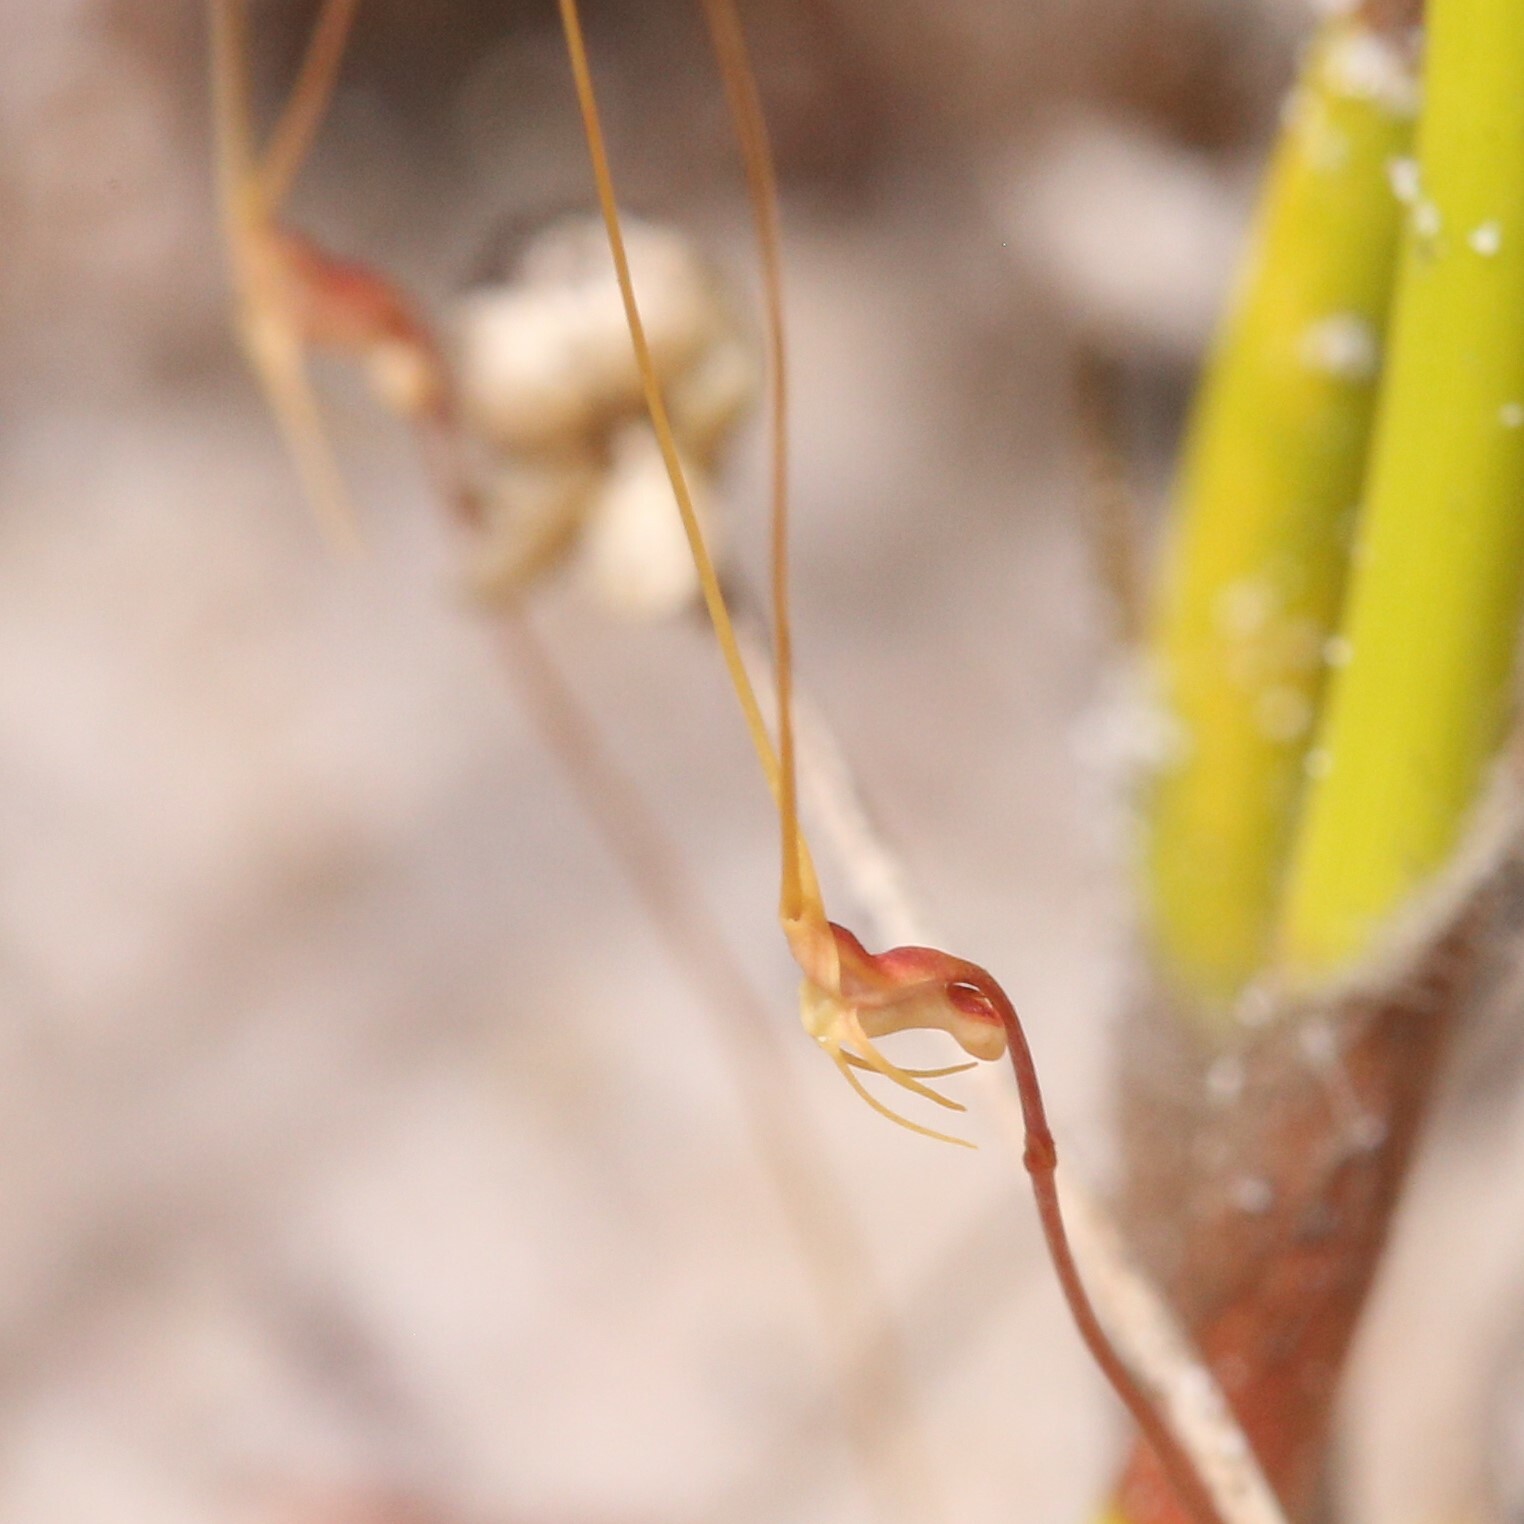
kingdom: Plantae
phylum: Tracheophyta
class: Magnoliopsida
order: Lamiales
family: Lentibulariaceae
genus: Utricularia
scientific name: Utricularia capilliflora
